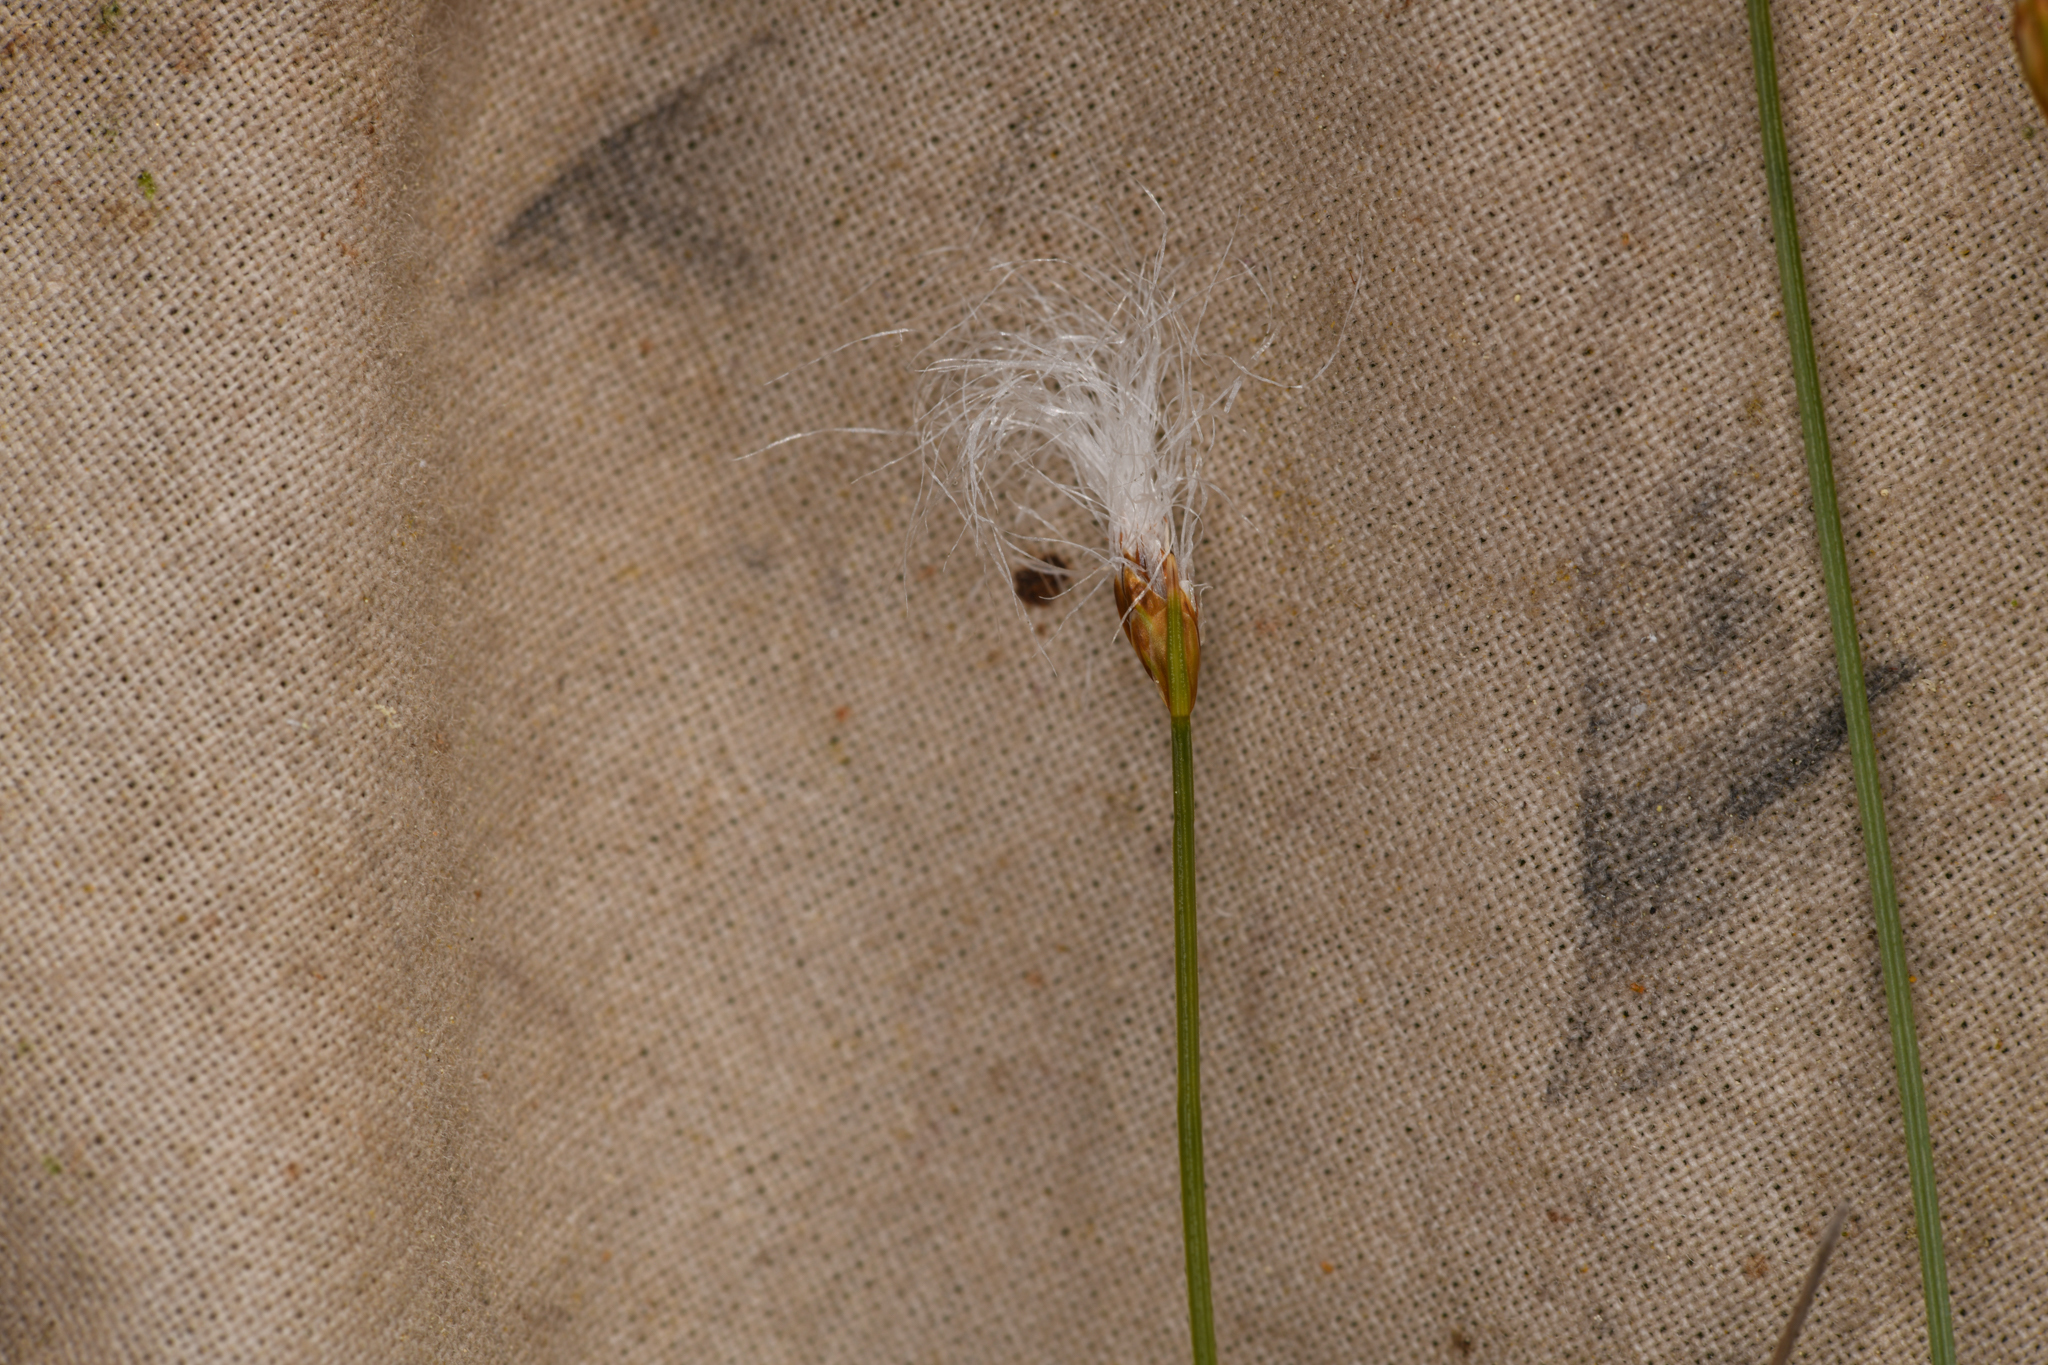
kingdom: Plantae
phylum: Tracheophyta
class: Liliopsida
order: Poales
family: Cyperaceae
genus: Trichophorum
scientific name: Trichophorum alpinum
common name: Alpine bulrush
